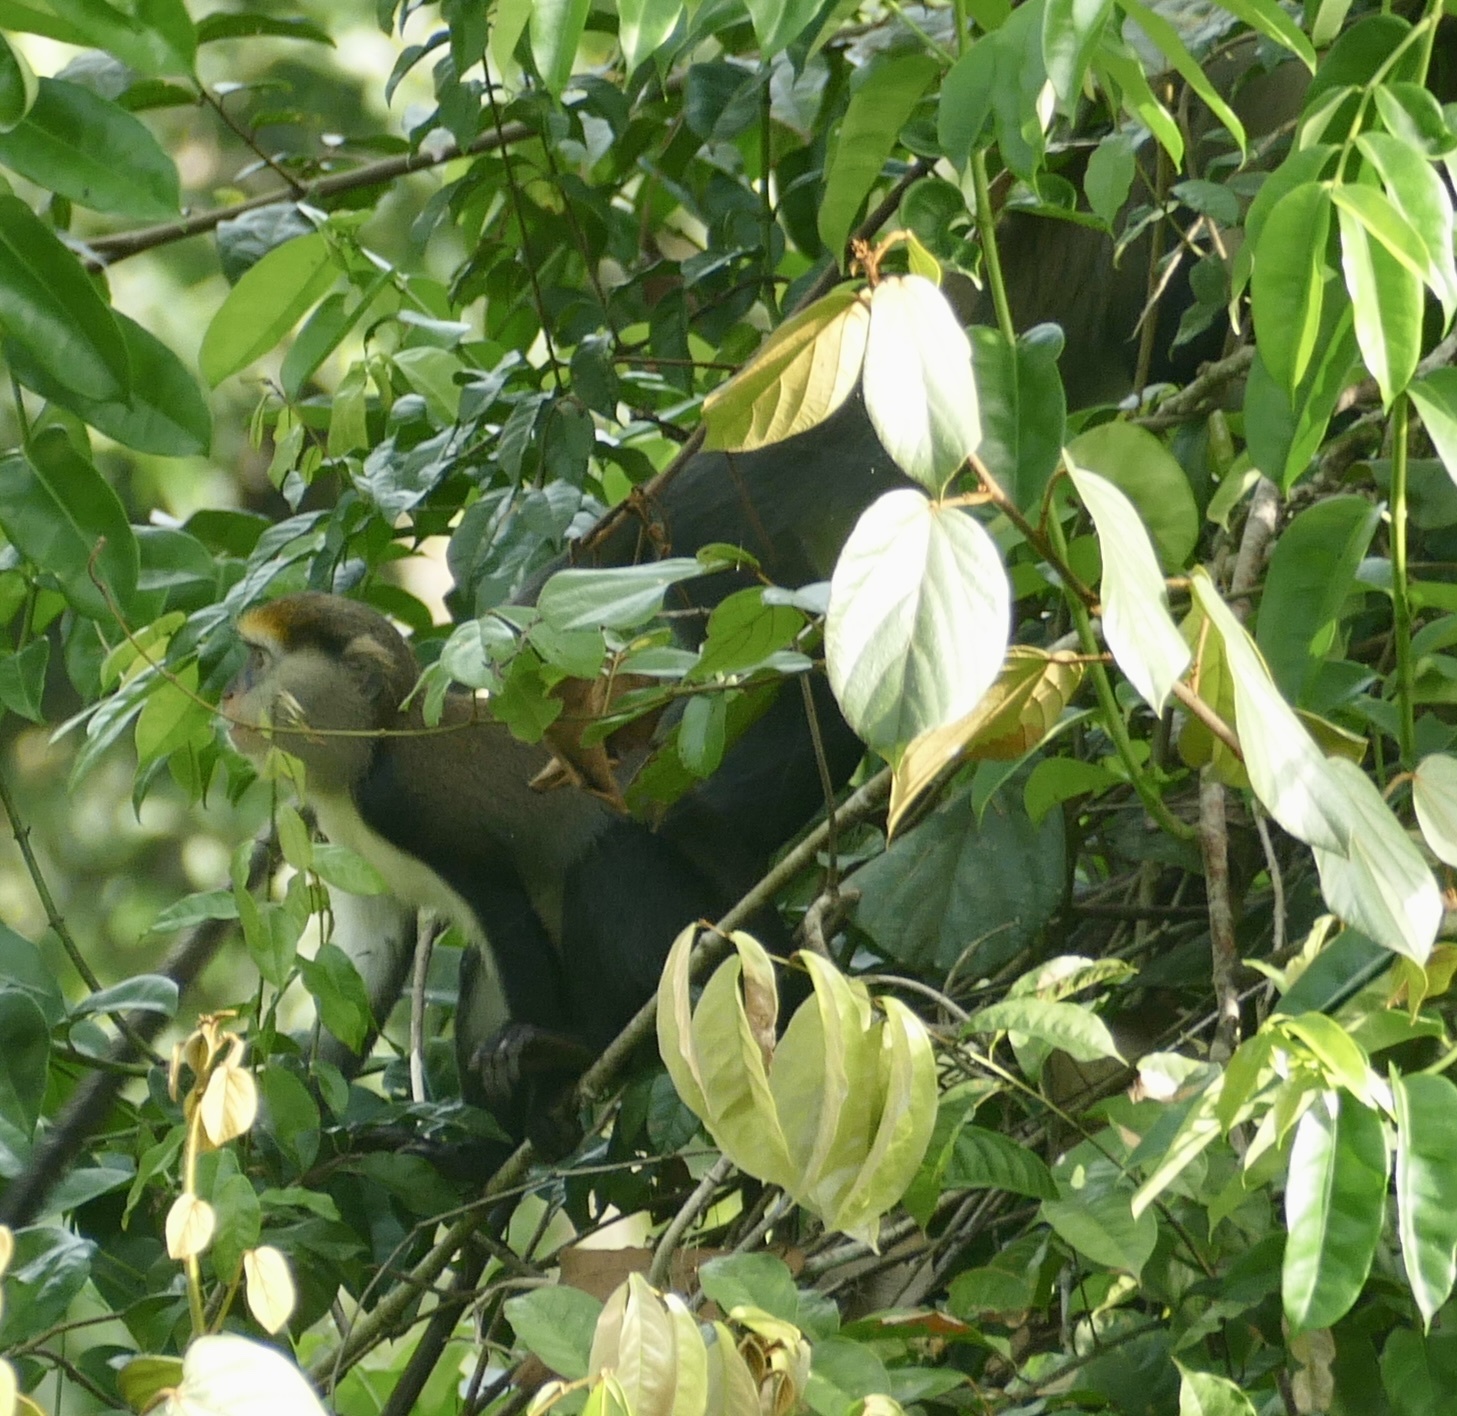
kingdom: Animalia
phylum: Chordata
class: Mammalia
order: Primates
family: Cercopithecidae
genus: Cercopithecus
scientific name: Cercopithecus lowei
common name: Lowe's monkey
